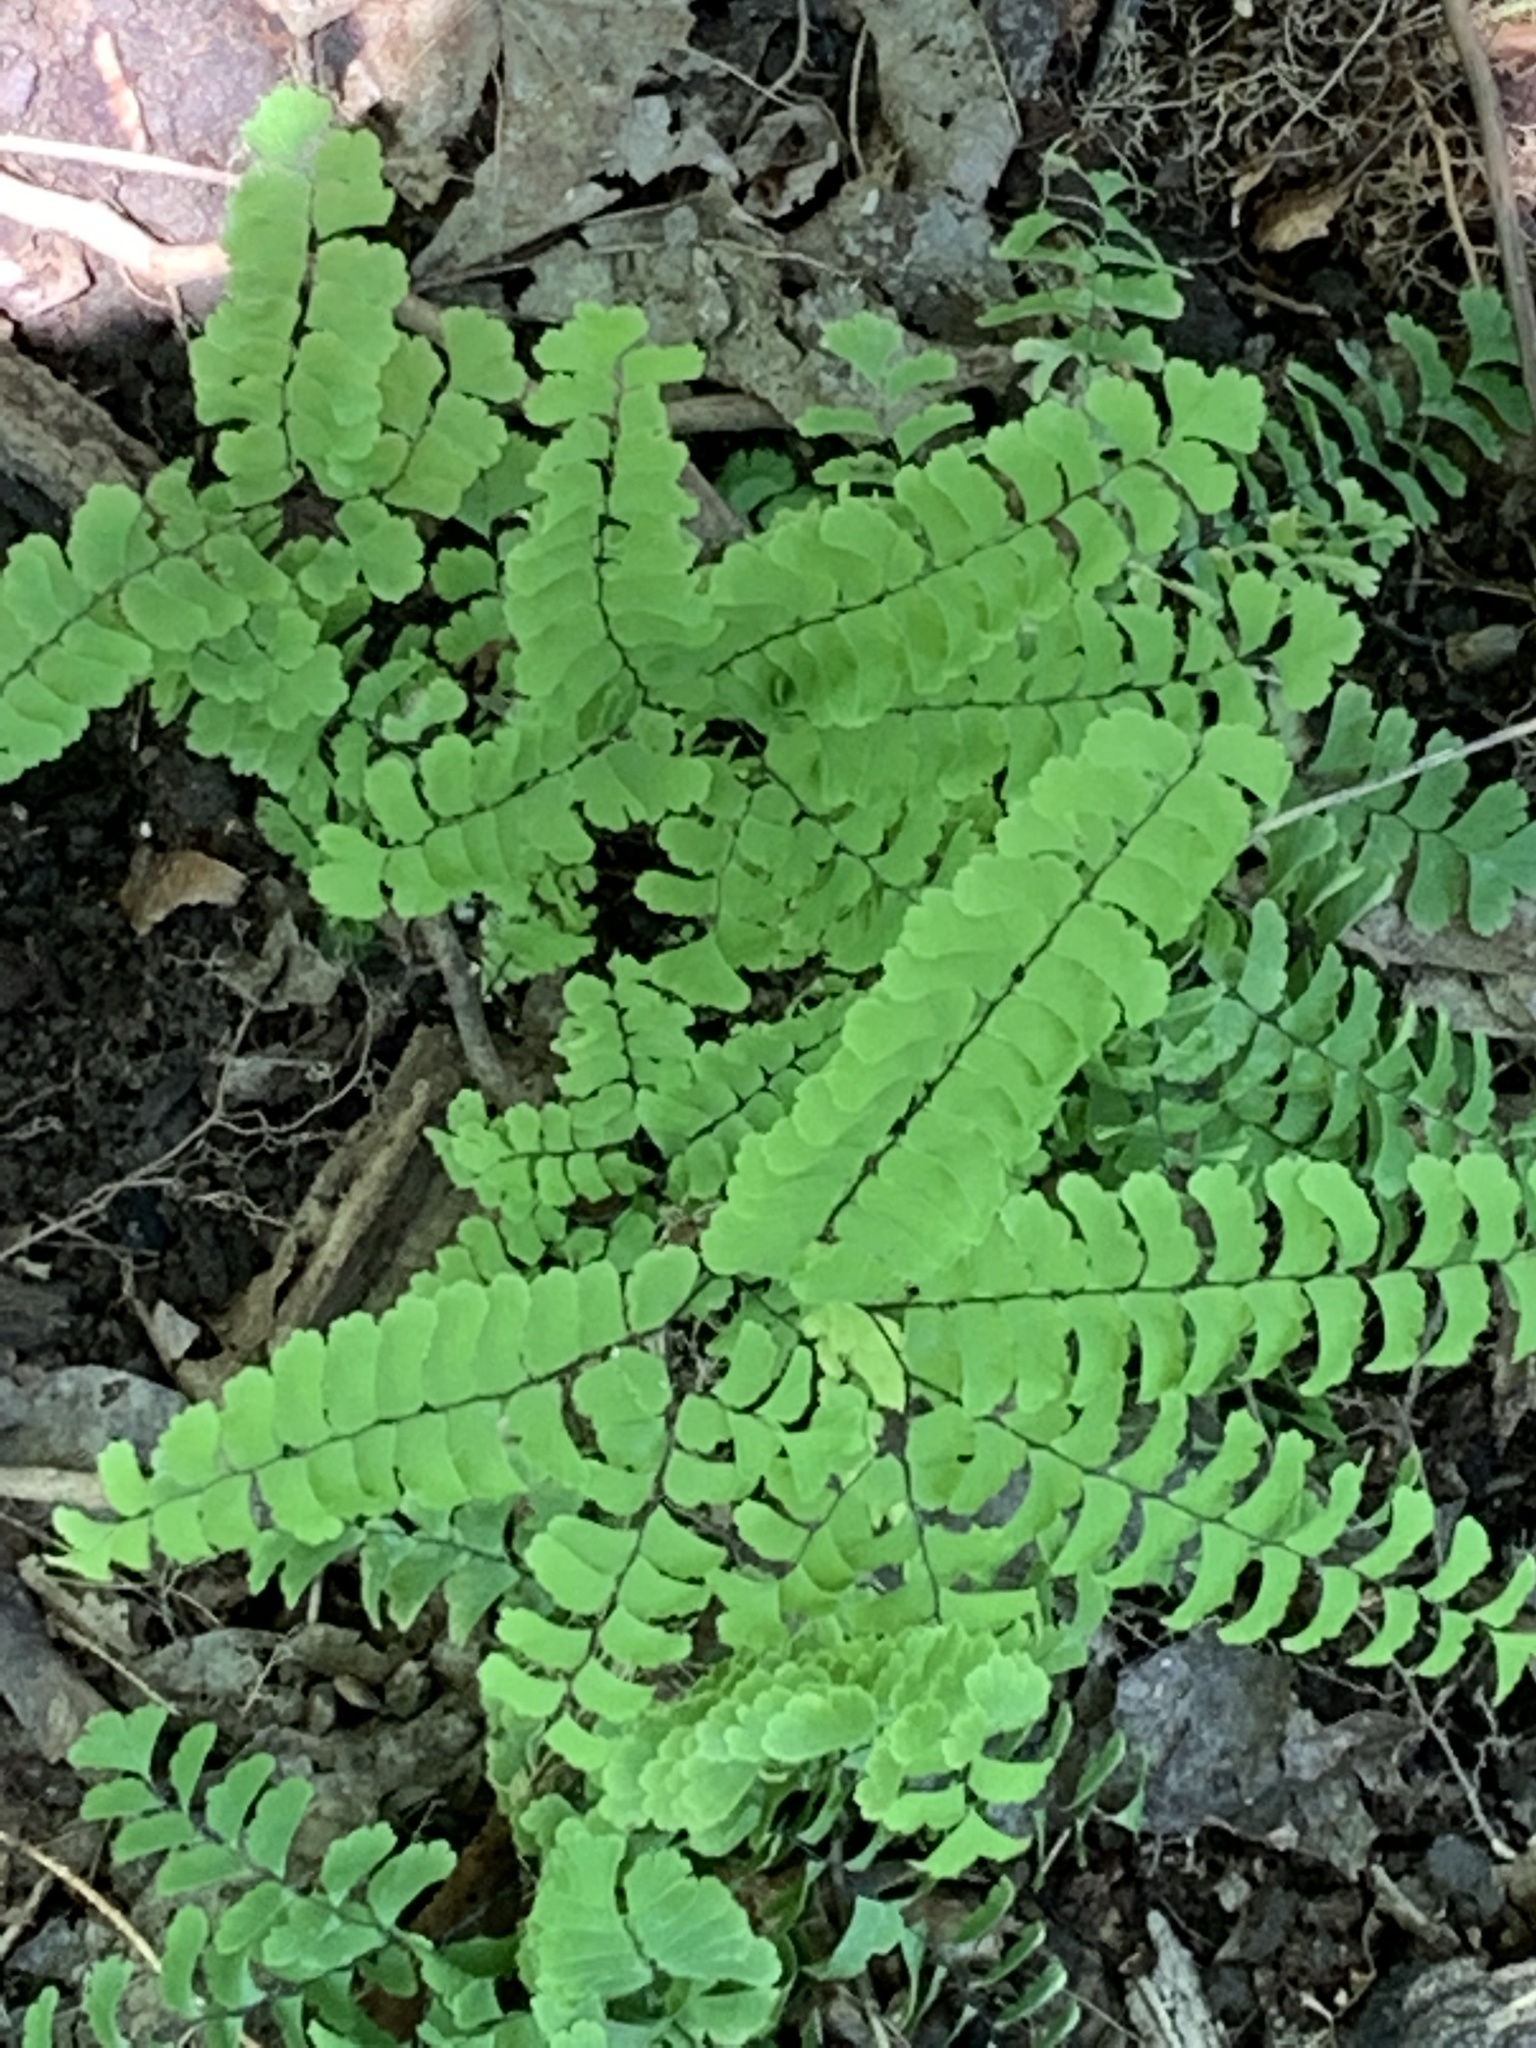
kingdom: Plantae
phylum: Tracheophyta
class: Polypodiopsida
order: Polypodiales
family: Pteridaceae
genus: Adiantum
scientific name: Adiantum pedatum
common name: Five-finger fern
